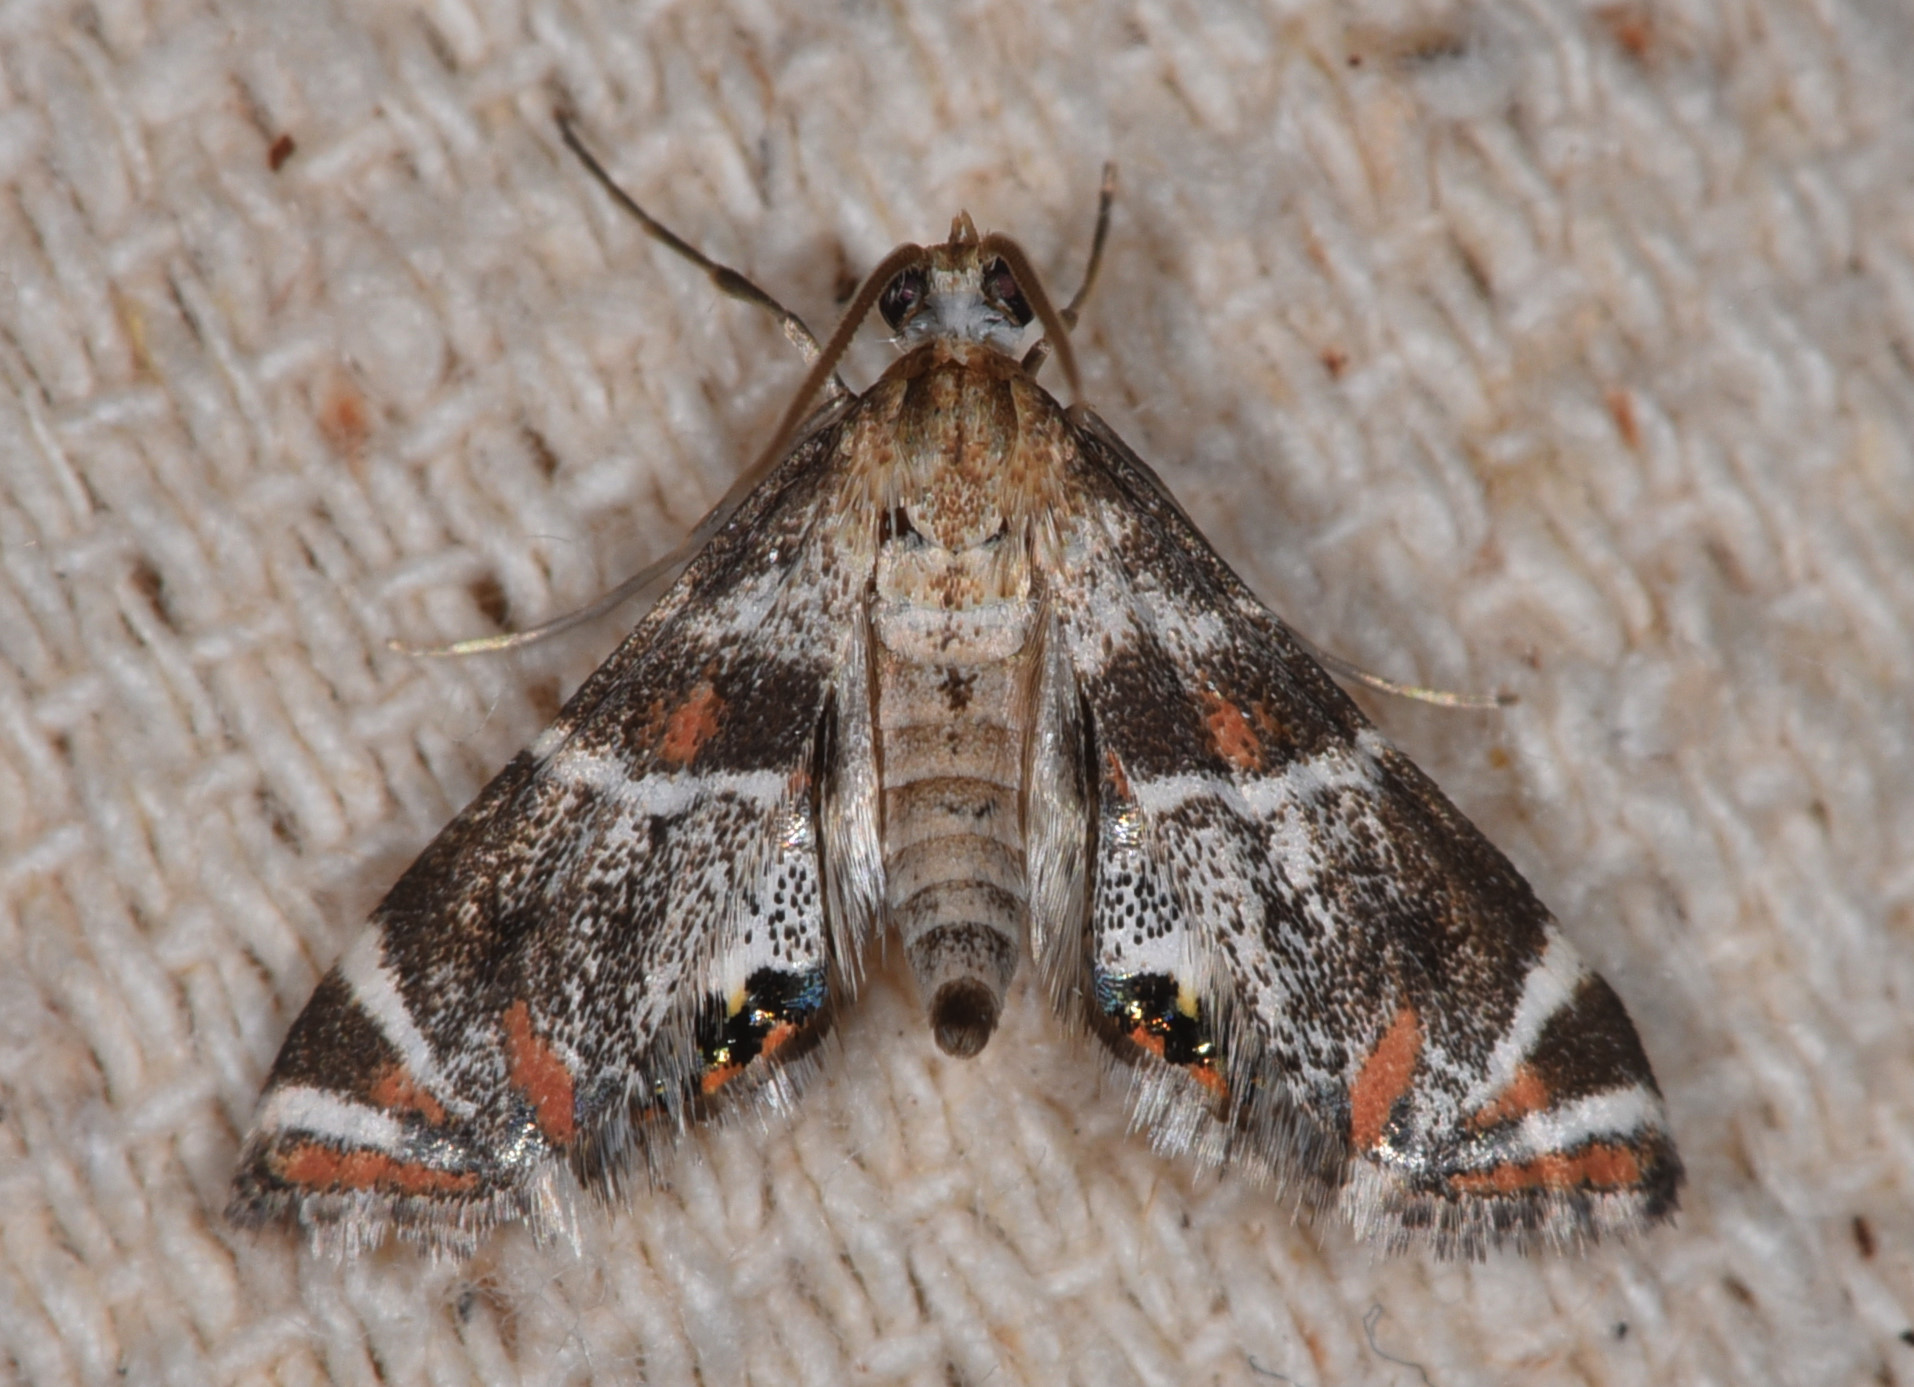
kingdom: Animalia
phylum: Arthropoda
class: Insecta
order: Lepidoptera
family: Crambidae
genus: Petrophila
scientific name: Petrophila jaliscalis
